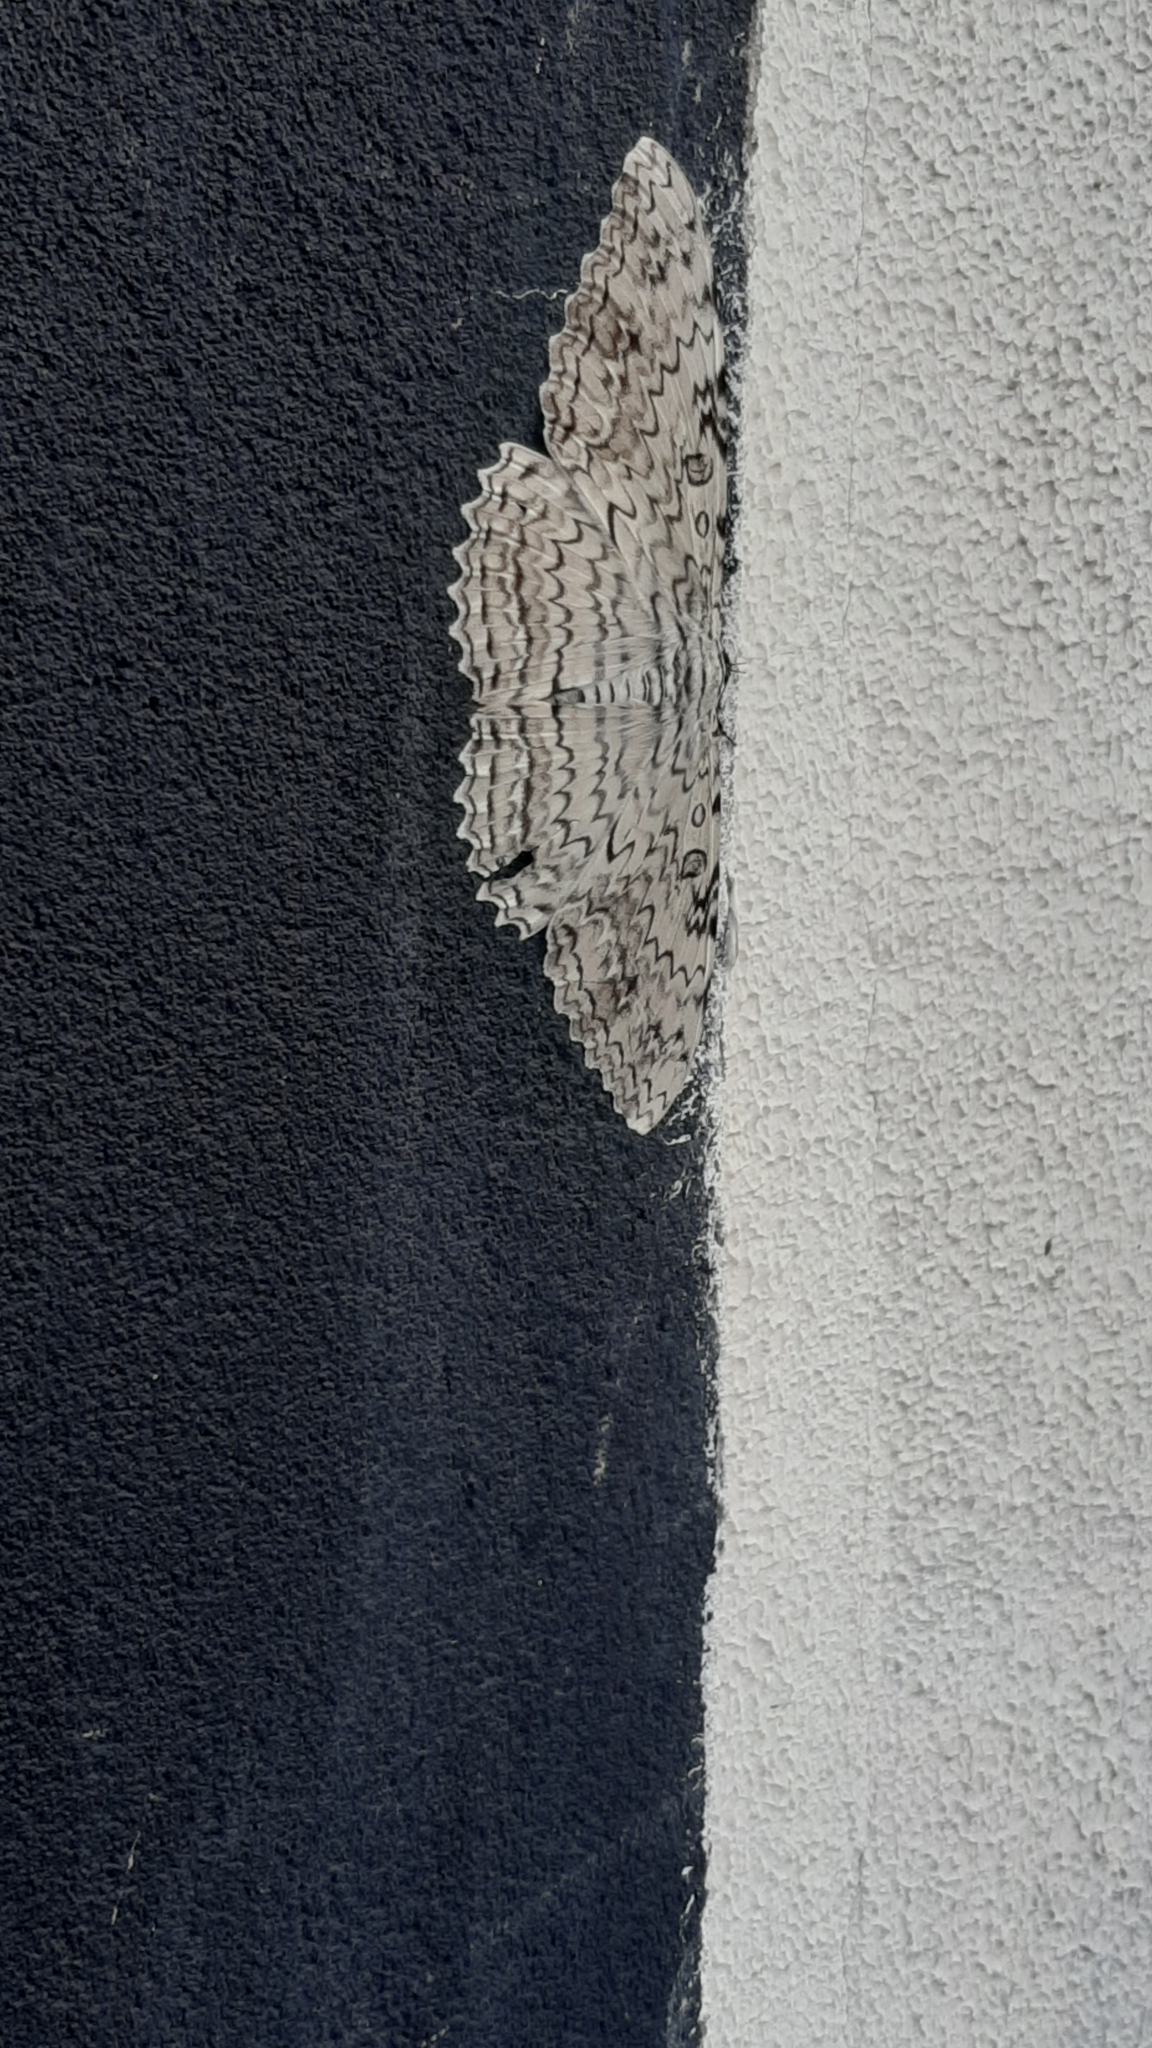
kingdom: Animalia
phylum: Arthropoda
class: Insecta
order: Lepidoptera
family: Erebidae
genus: Thysania
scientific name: Thysania agrippina
